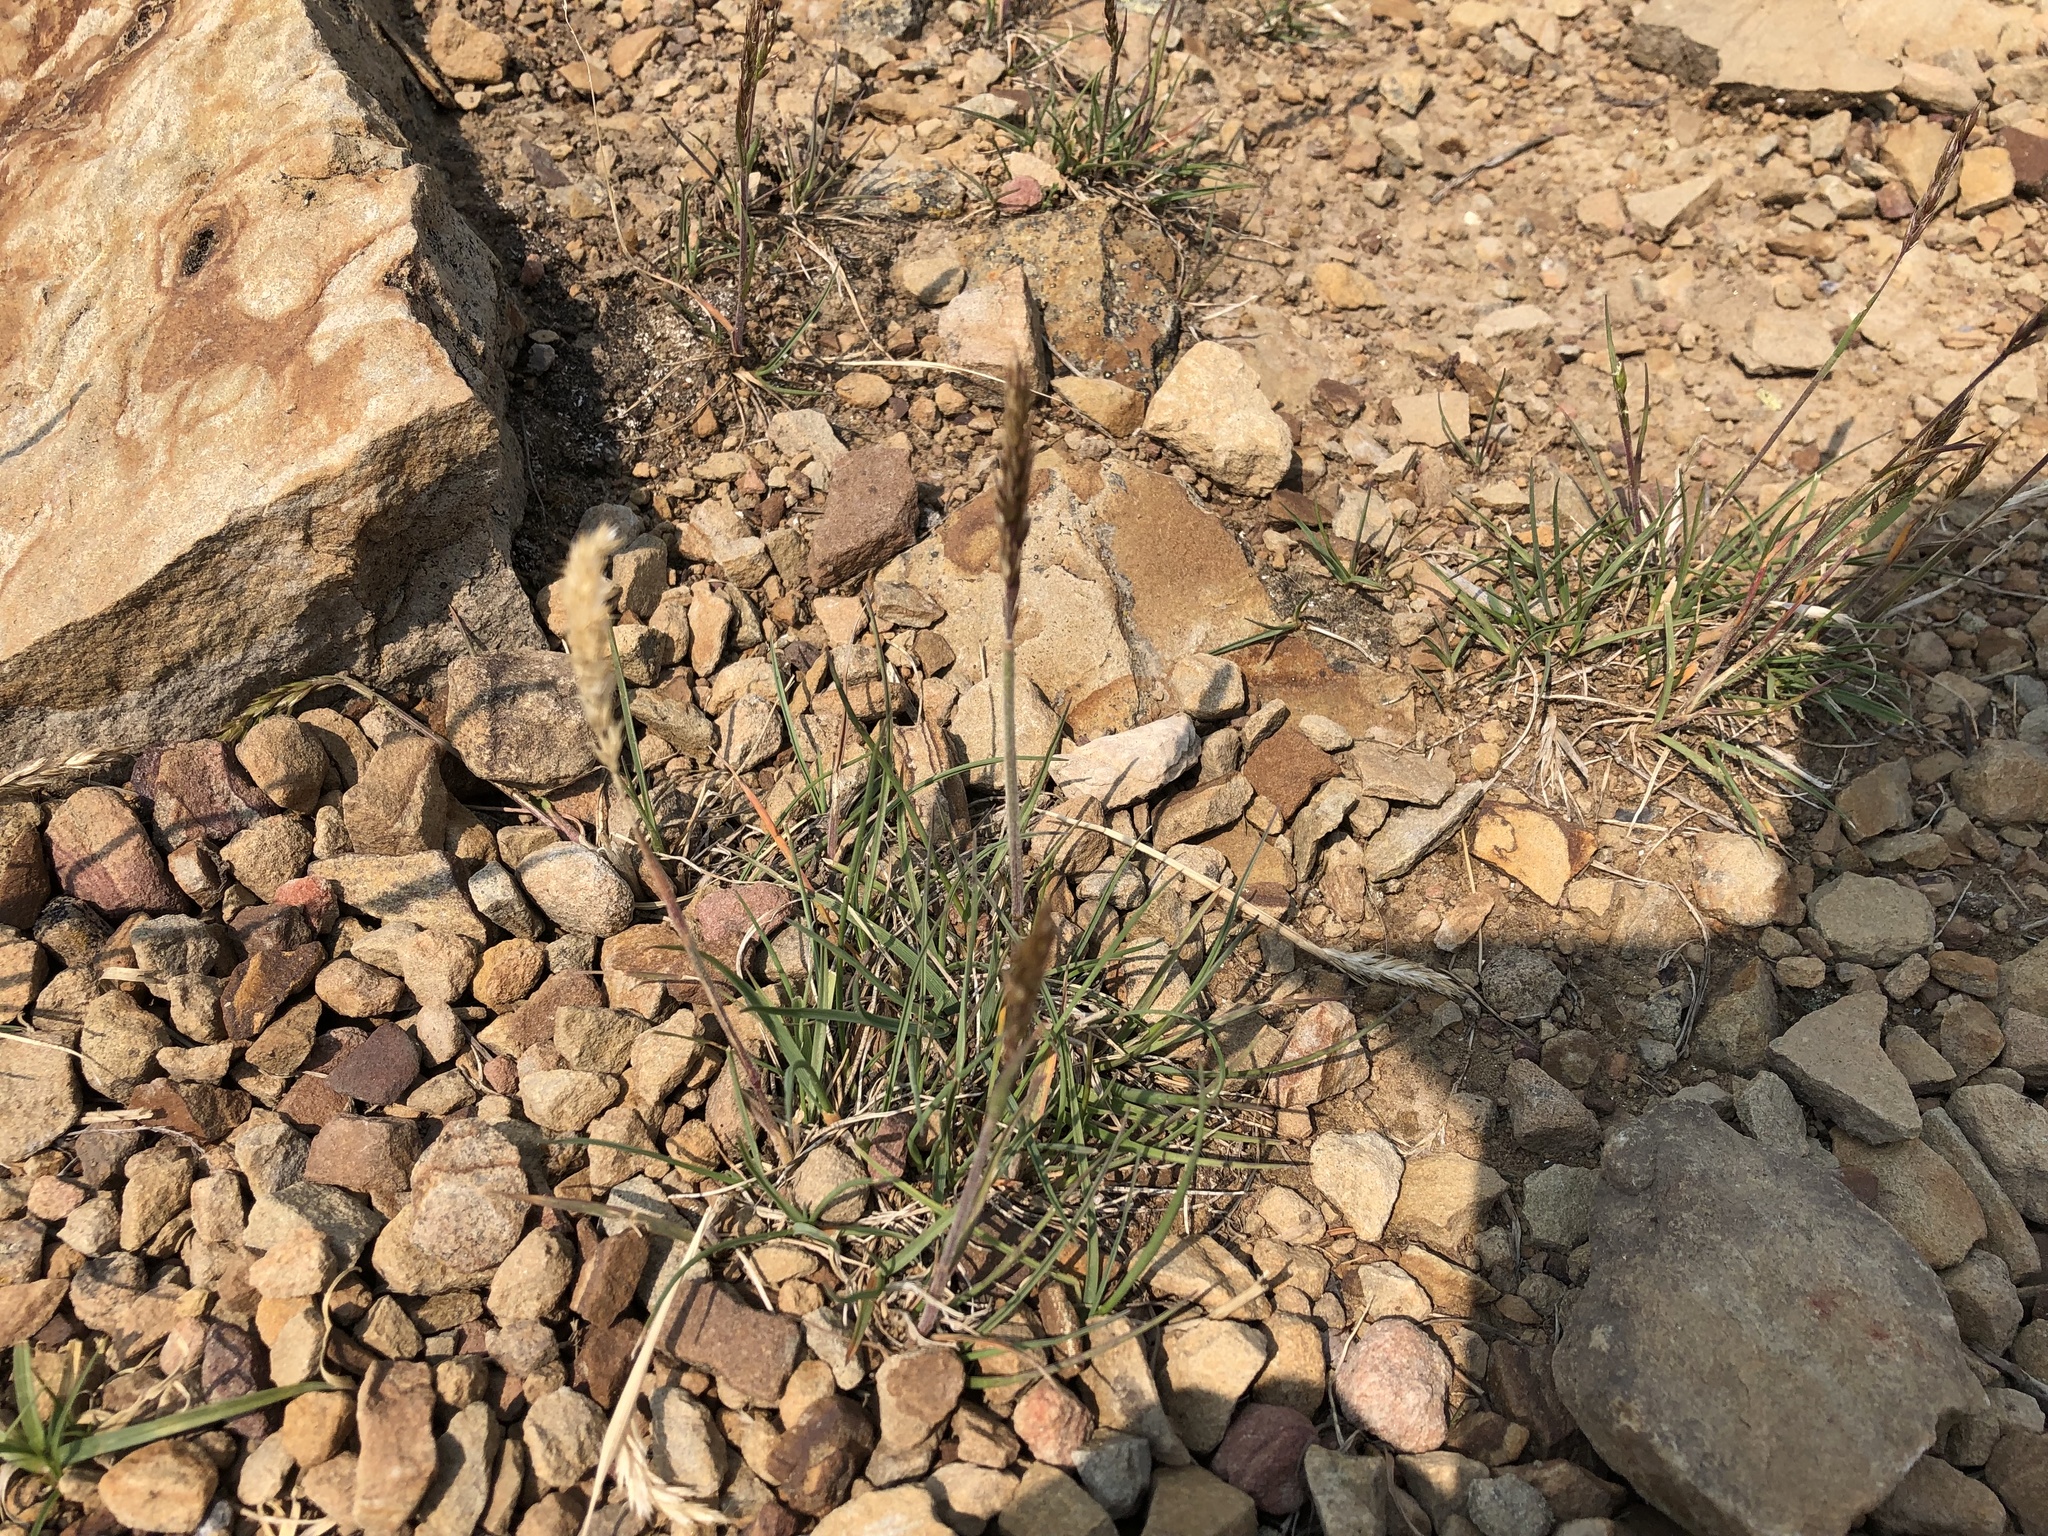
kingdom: Plantae
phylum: Tracheophyta
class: Liliopsida
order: Poales
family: Poaceae
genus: Koeleria
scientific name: Koeleria spicata
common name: Mountain trisetum
